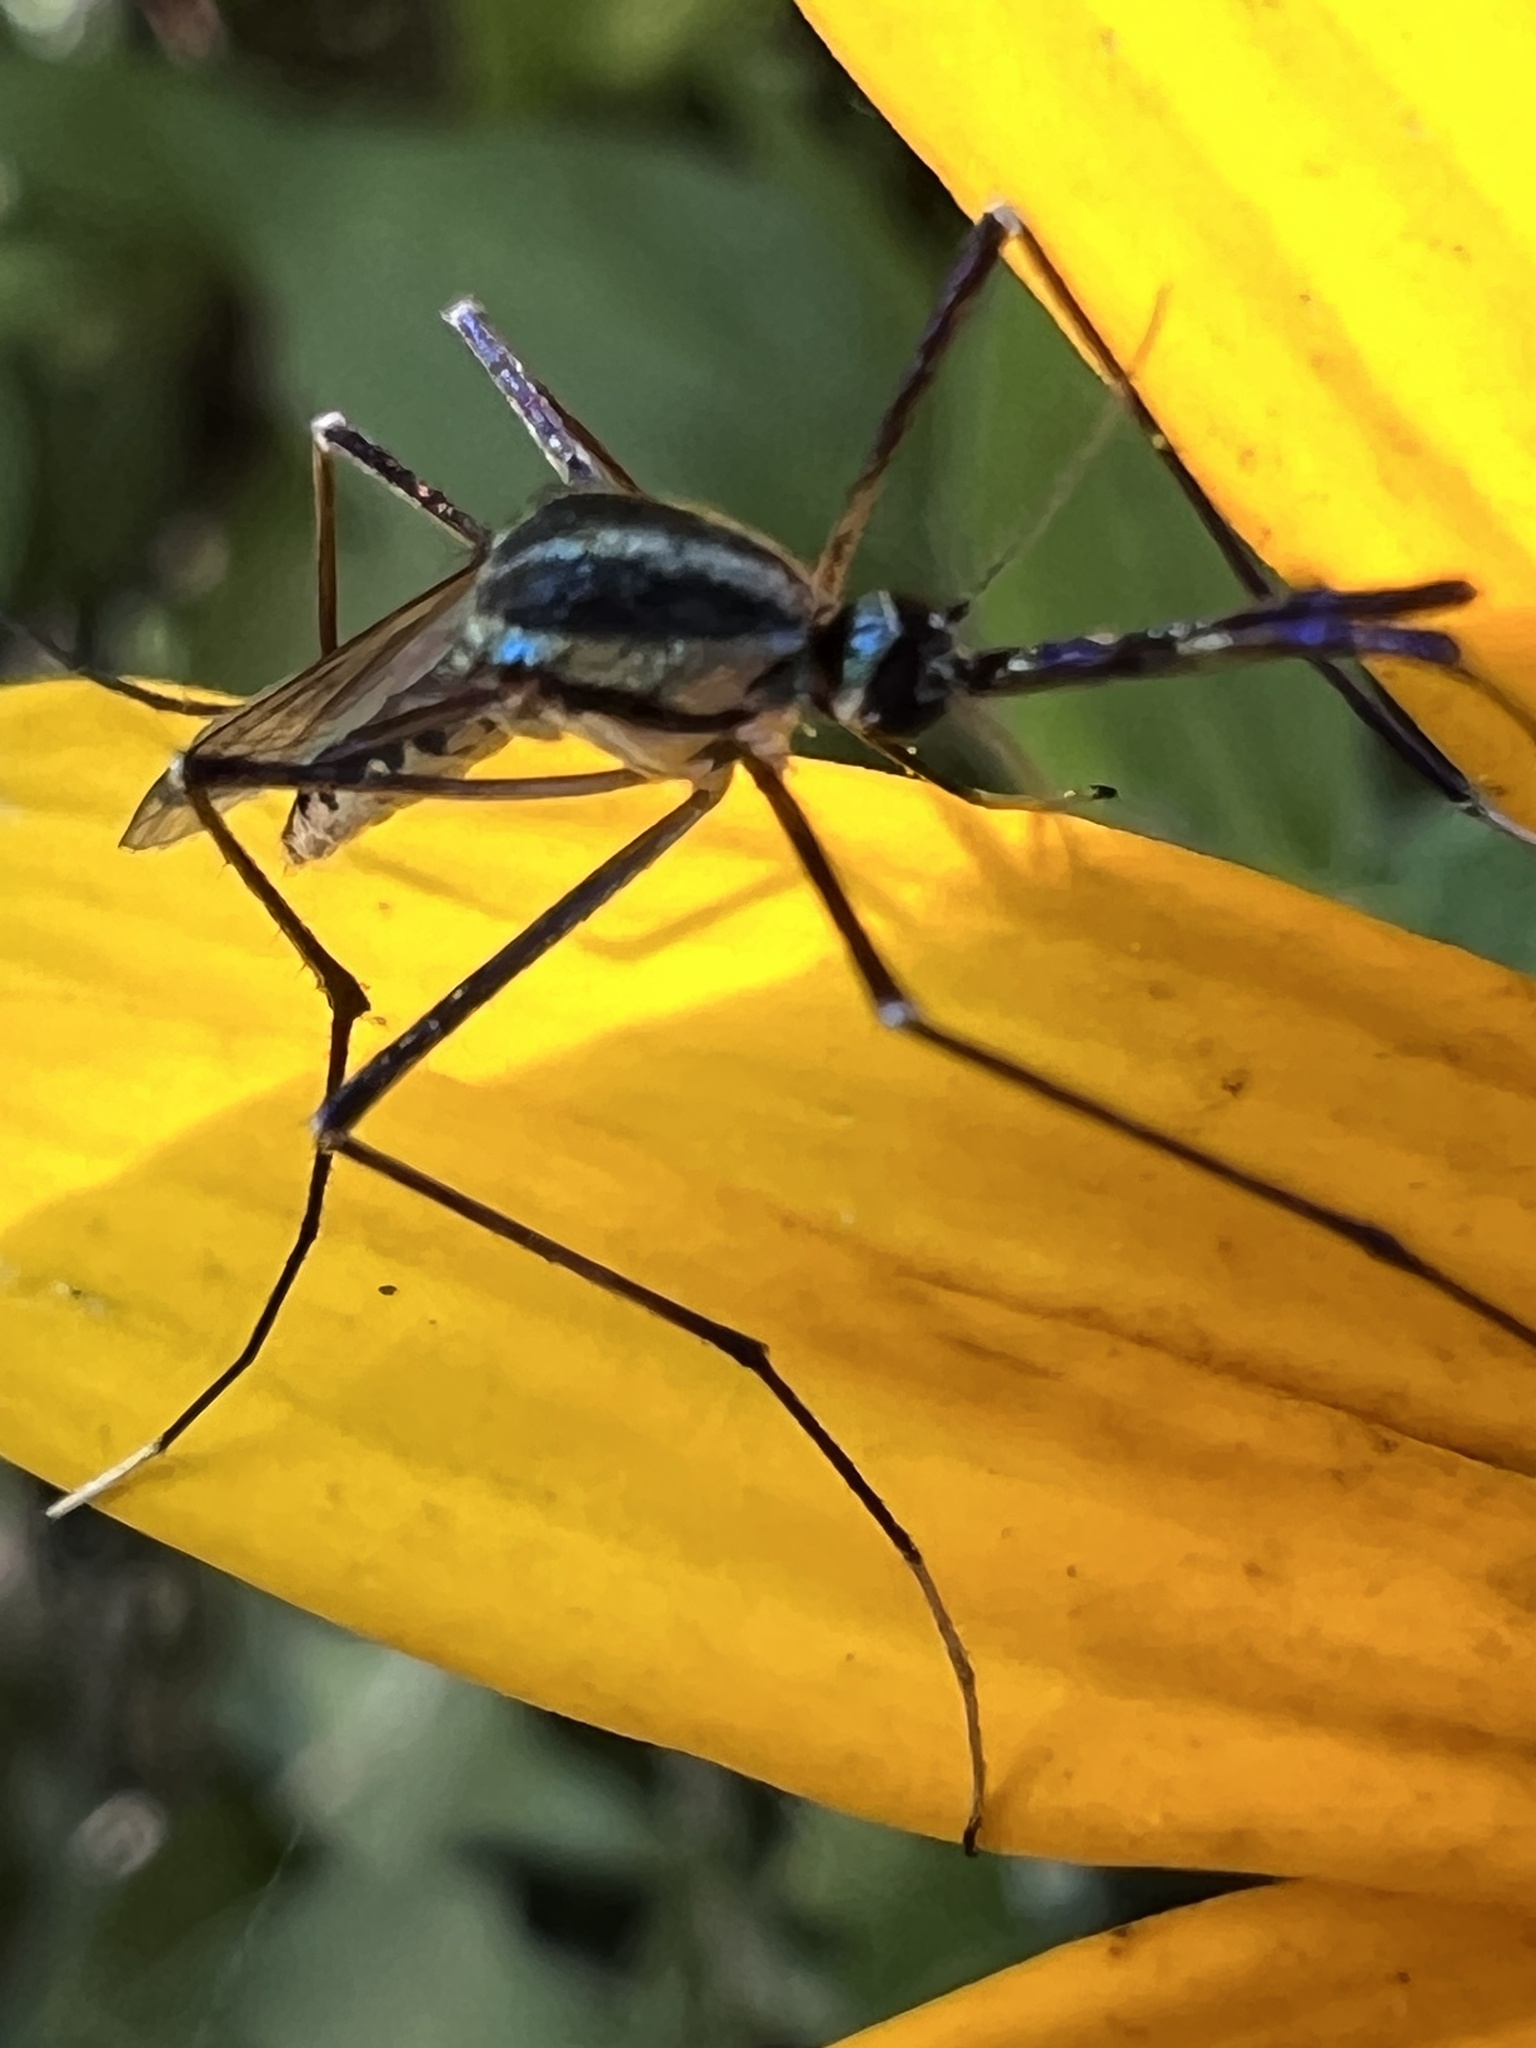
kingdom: Animalia
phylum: Arthropoda
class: Insecta
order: Diptera
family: Culicidae
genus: Toxorhynchites
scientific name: Toxorhynchites rutilus
